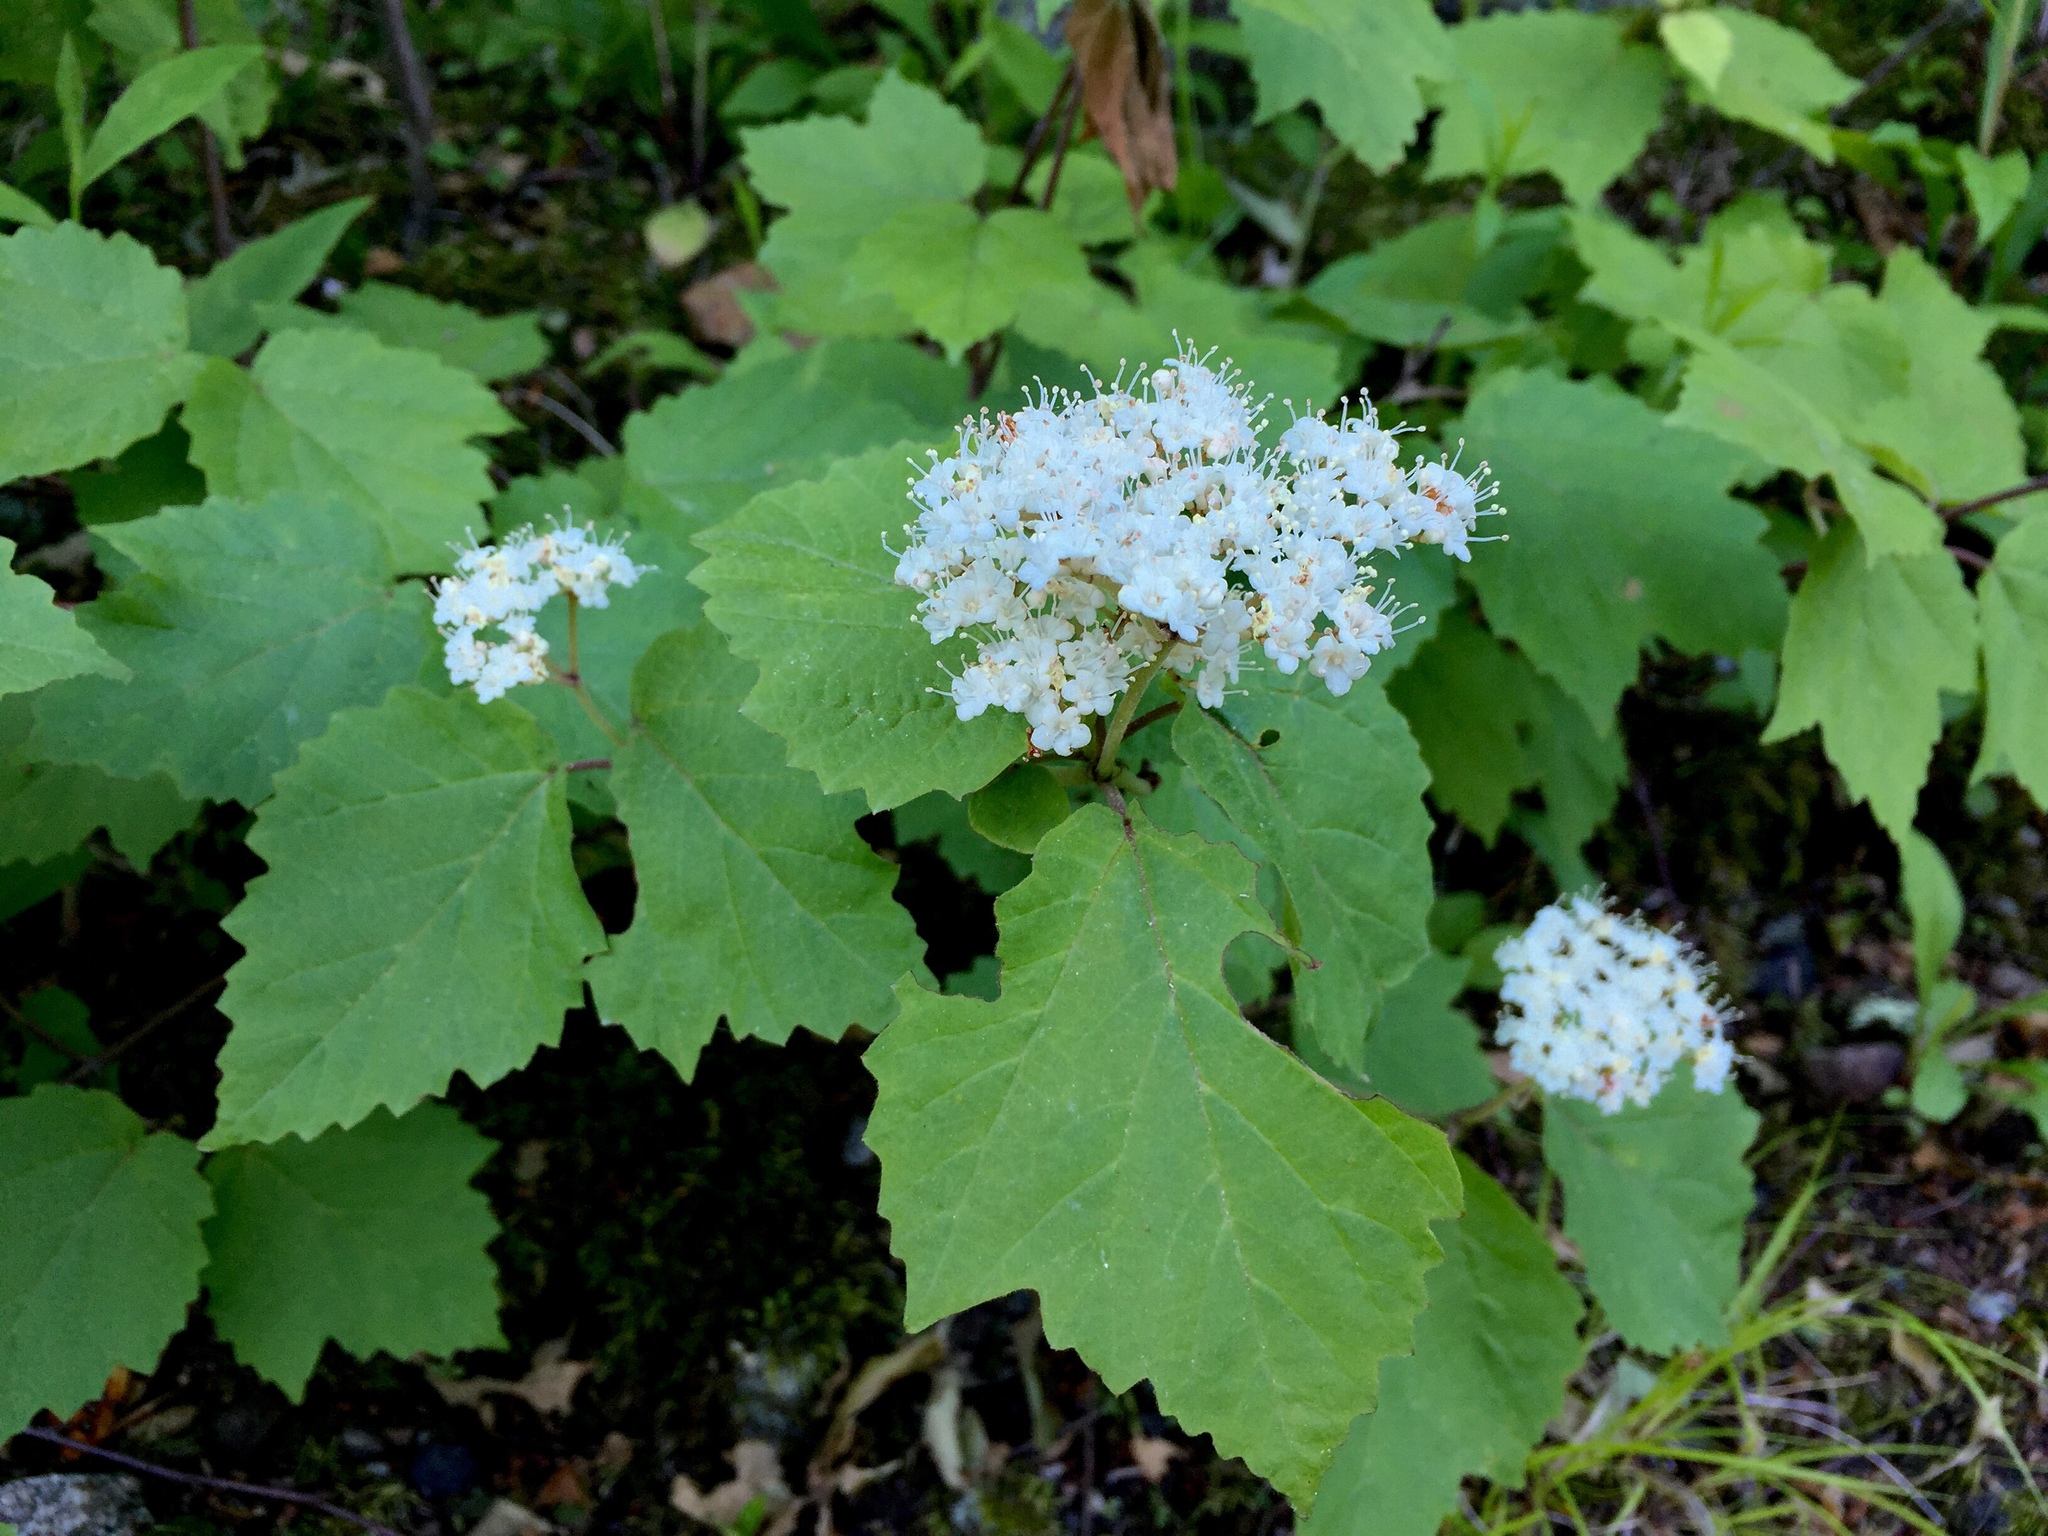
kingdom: Plantae
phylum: Tracheophyta
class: Magnoliopsida
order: Dipsacales
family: Viburnaceae
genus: Viburnum
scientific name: Viburnum acerifolium
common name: Dockmackie
